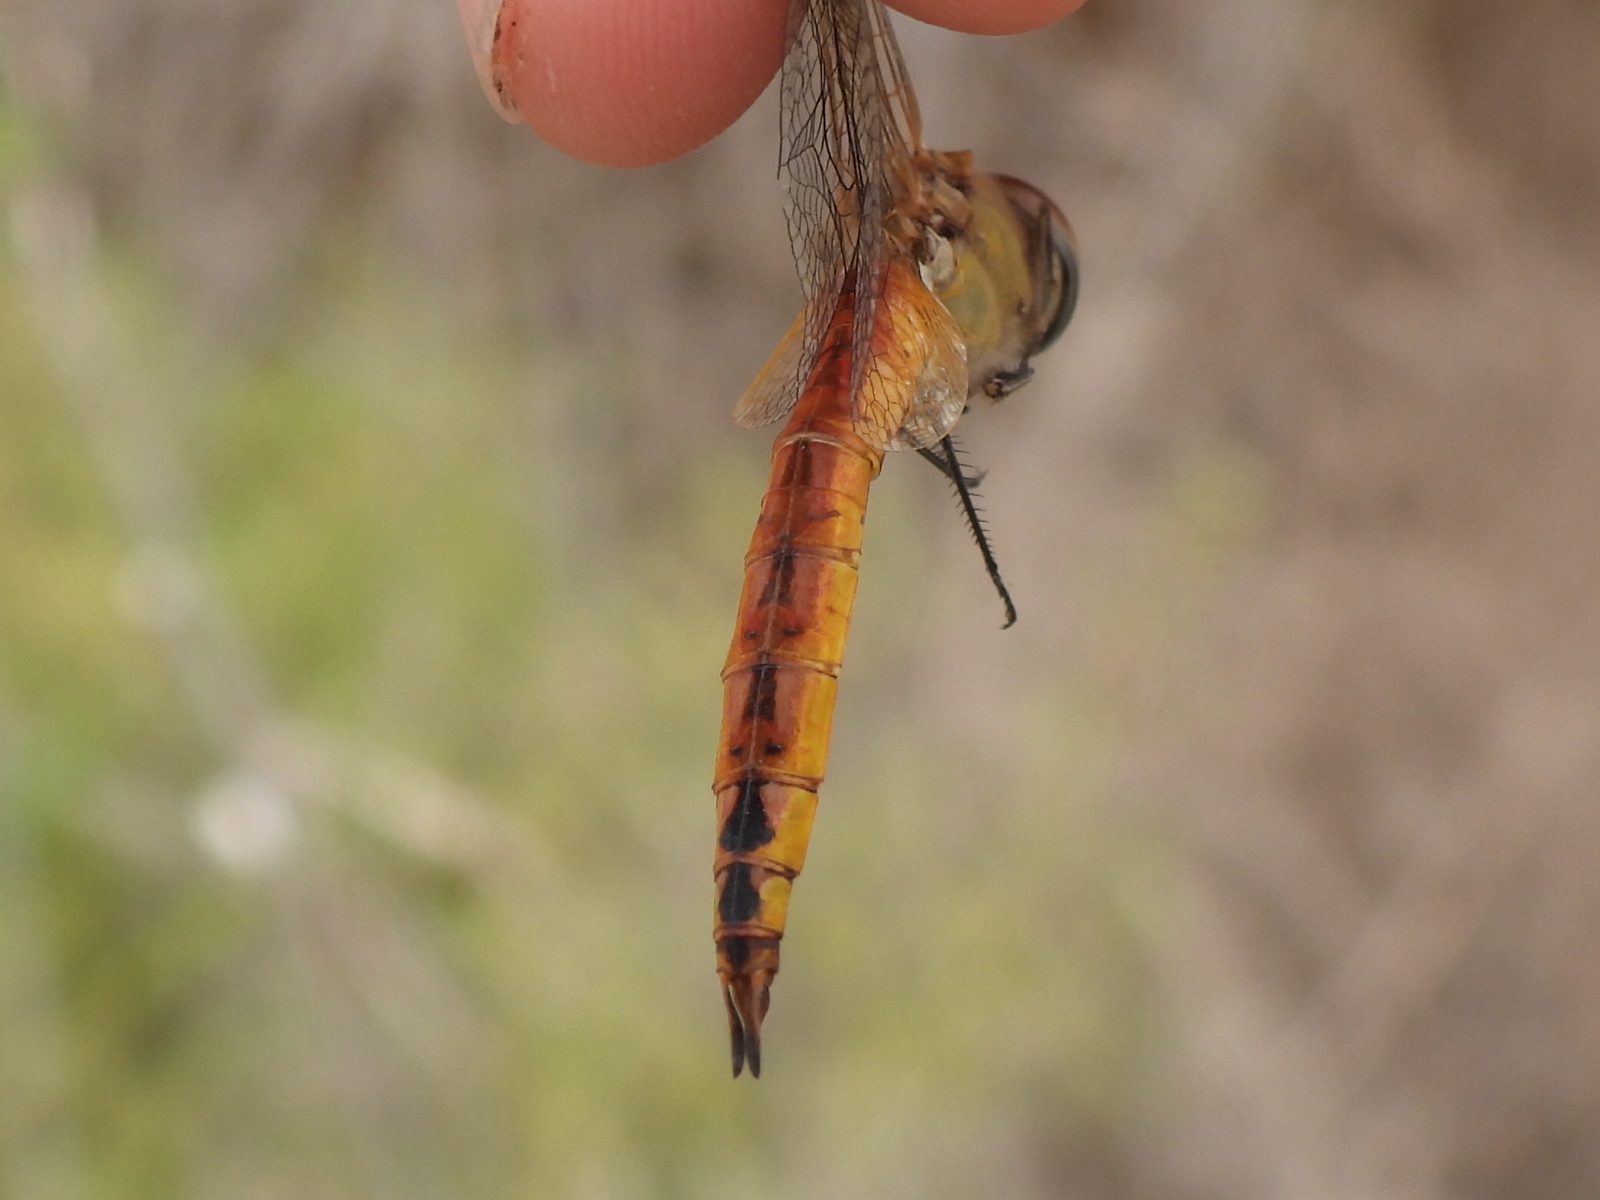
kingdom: Animalia
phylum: Arthropoda
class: Insecta
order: Odonata
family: Libellulidae
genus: Pantala
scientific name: Pantala flavescens
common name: Wandering glider
